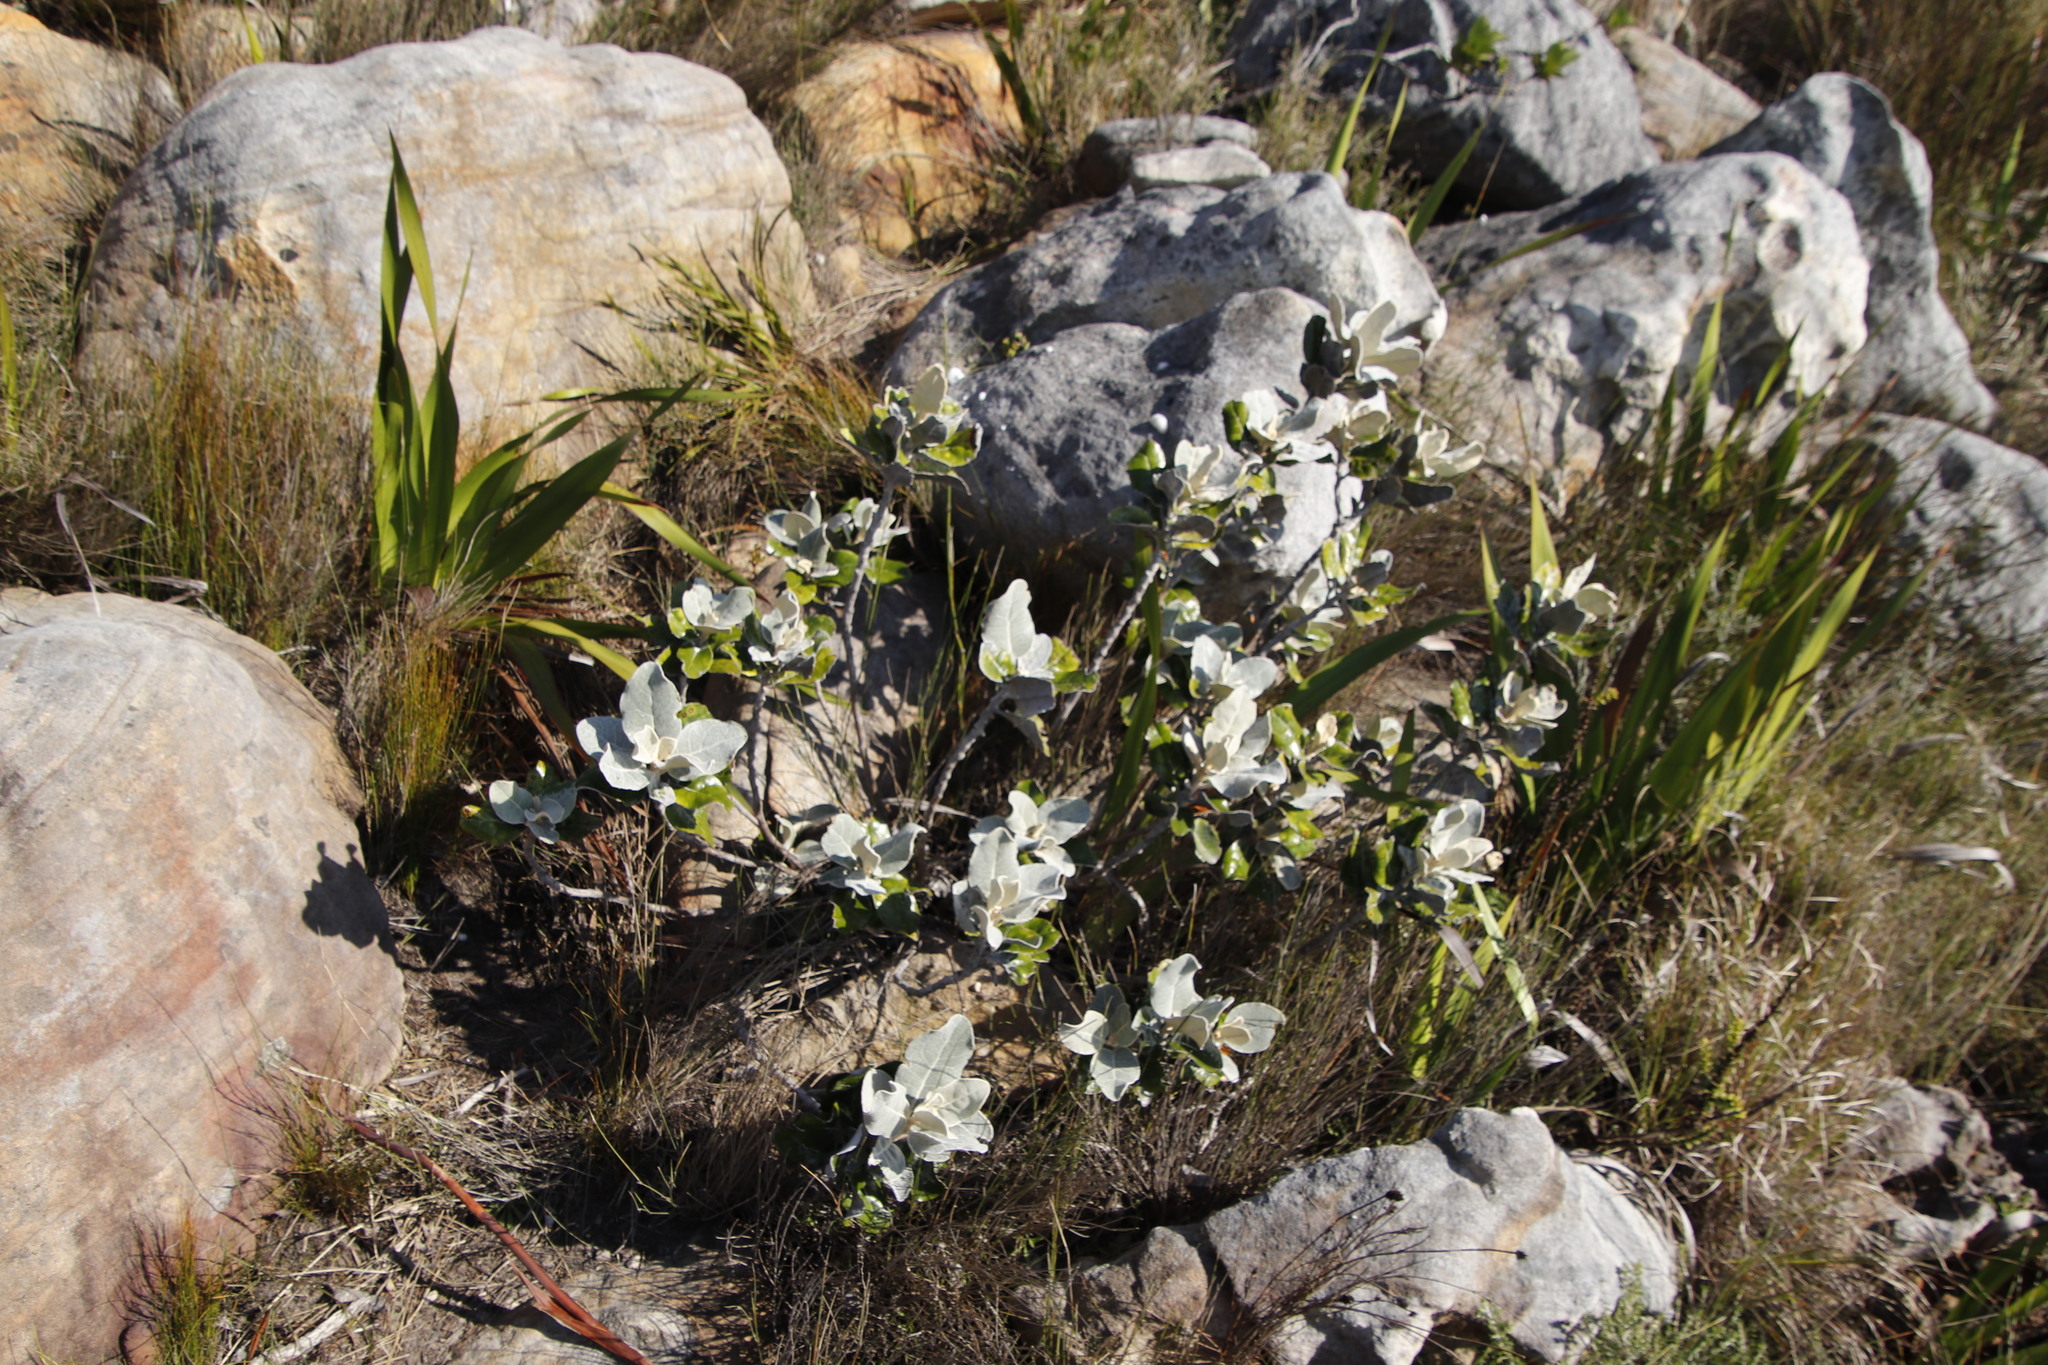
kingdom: Plantae
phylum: Tracheophyta
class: Magnoliopsida
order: Asterales
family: Asteraceae
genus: Capelio
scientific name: Capelio tabularis
